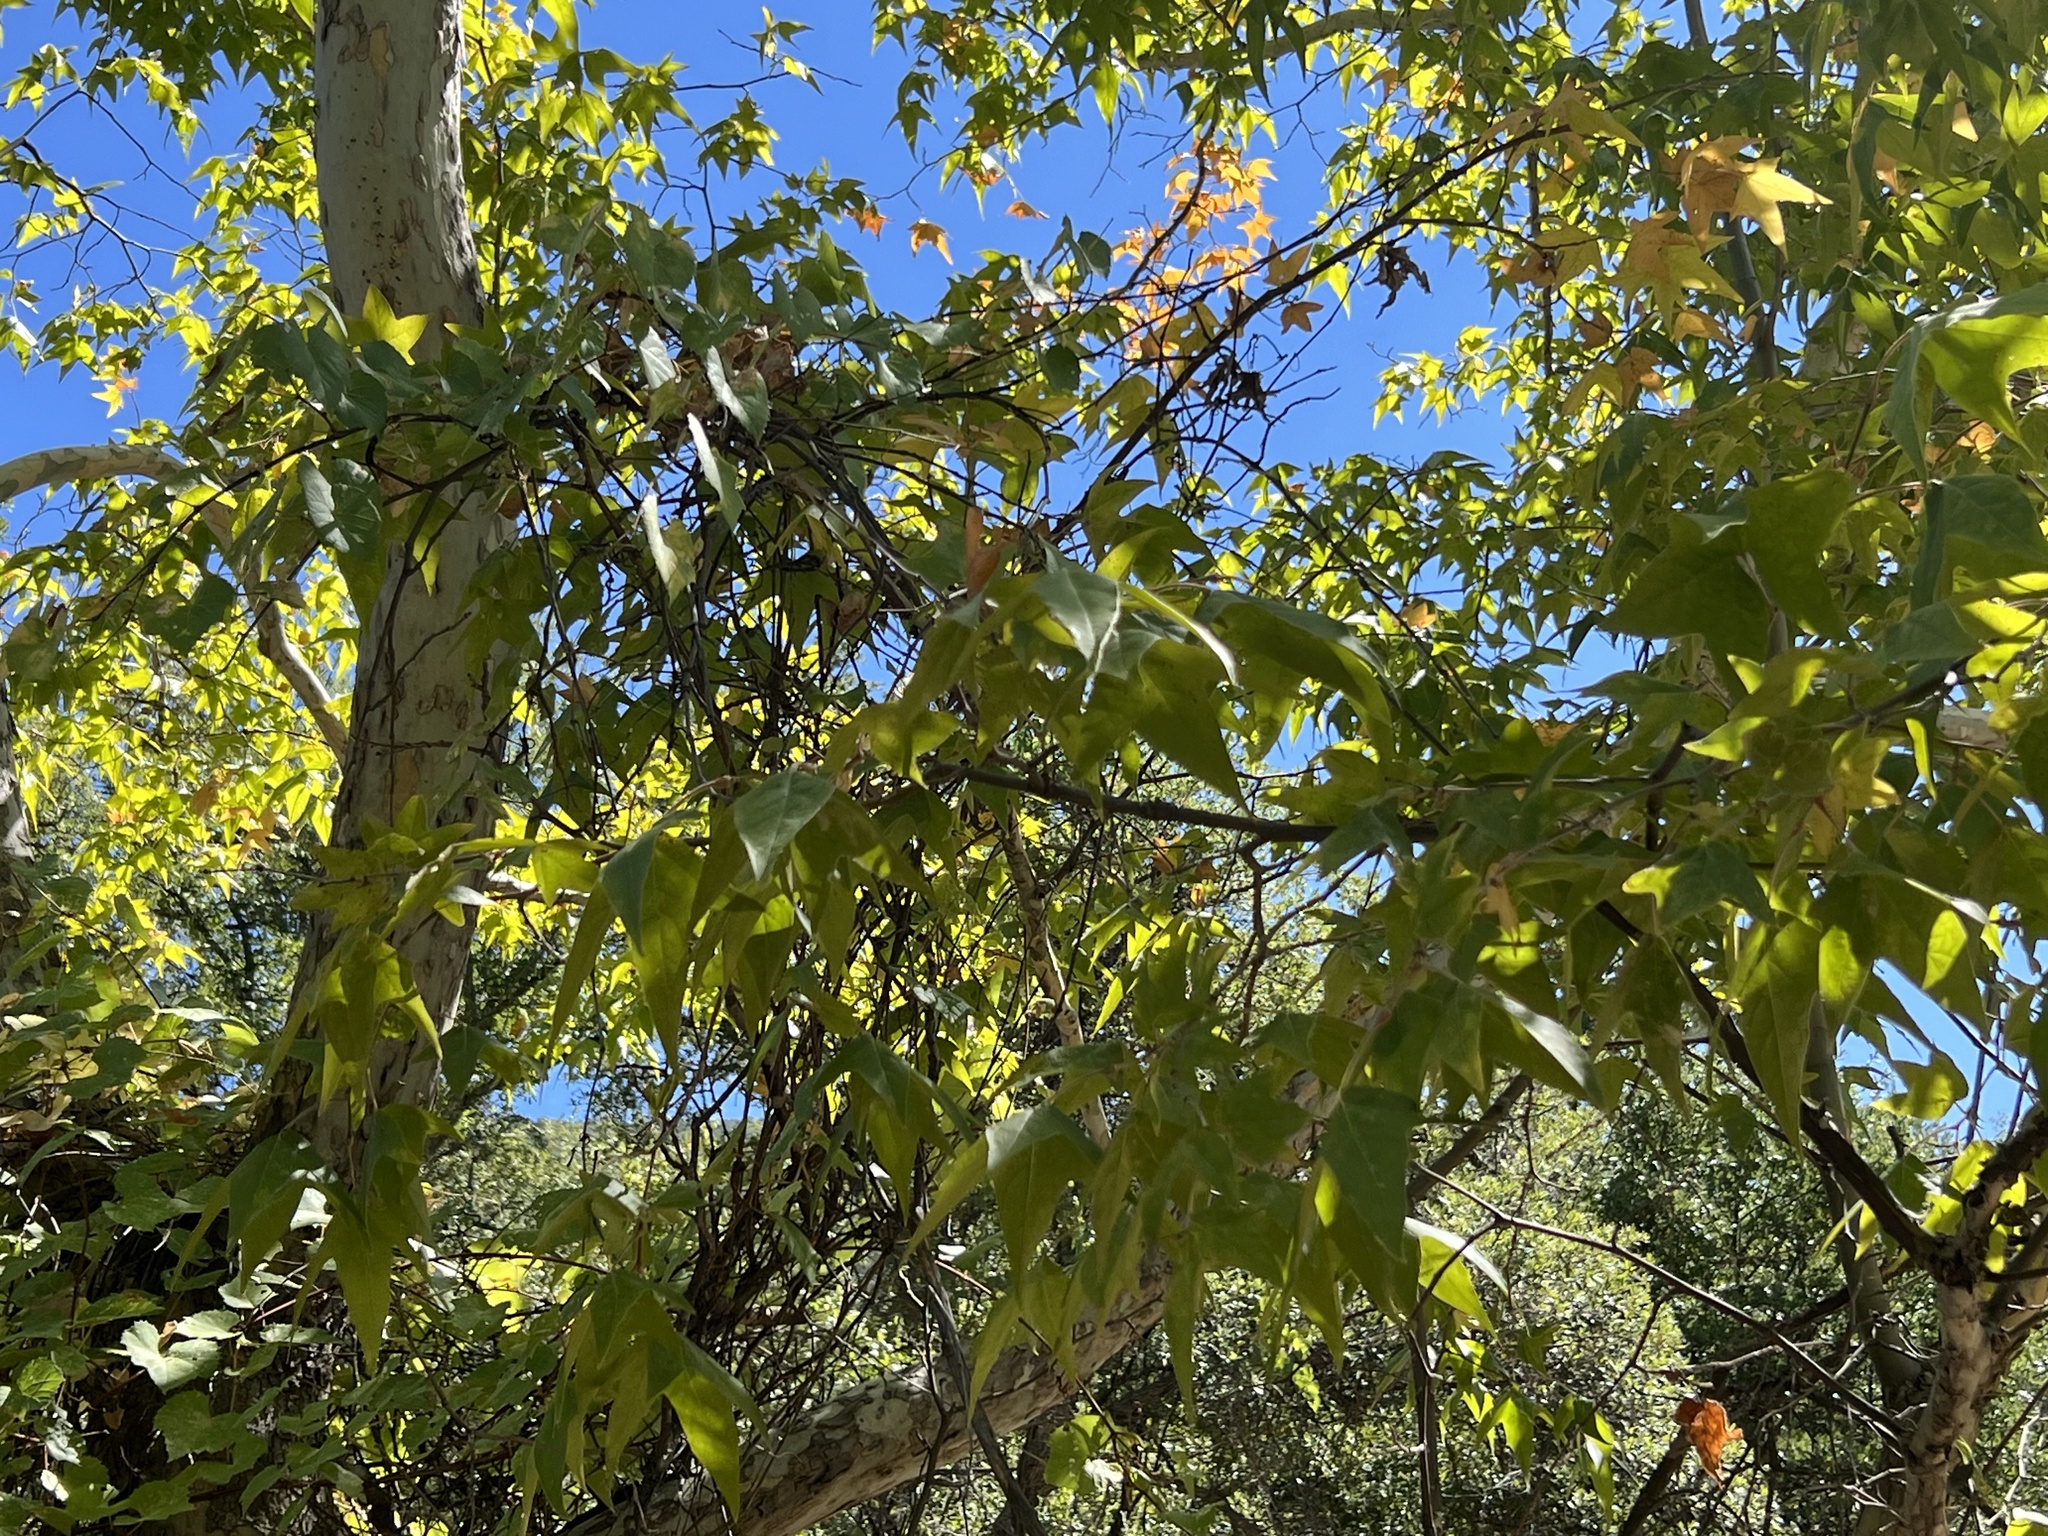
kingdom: Plantae
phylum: Tracheophyta
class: Magnoliopsida
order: Proteales
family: Platanaceae
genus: Platanus
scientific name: Platanus wrightii
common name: Arizona sycamore
